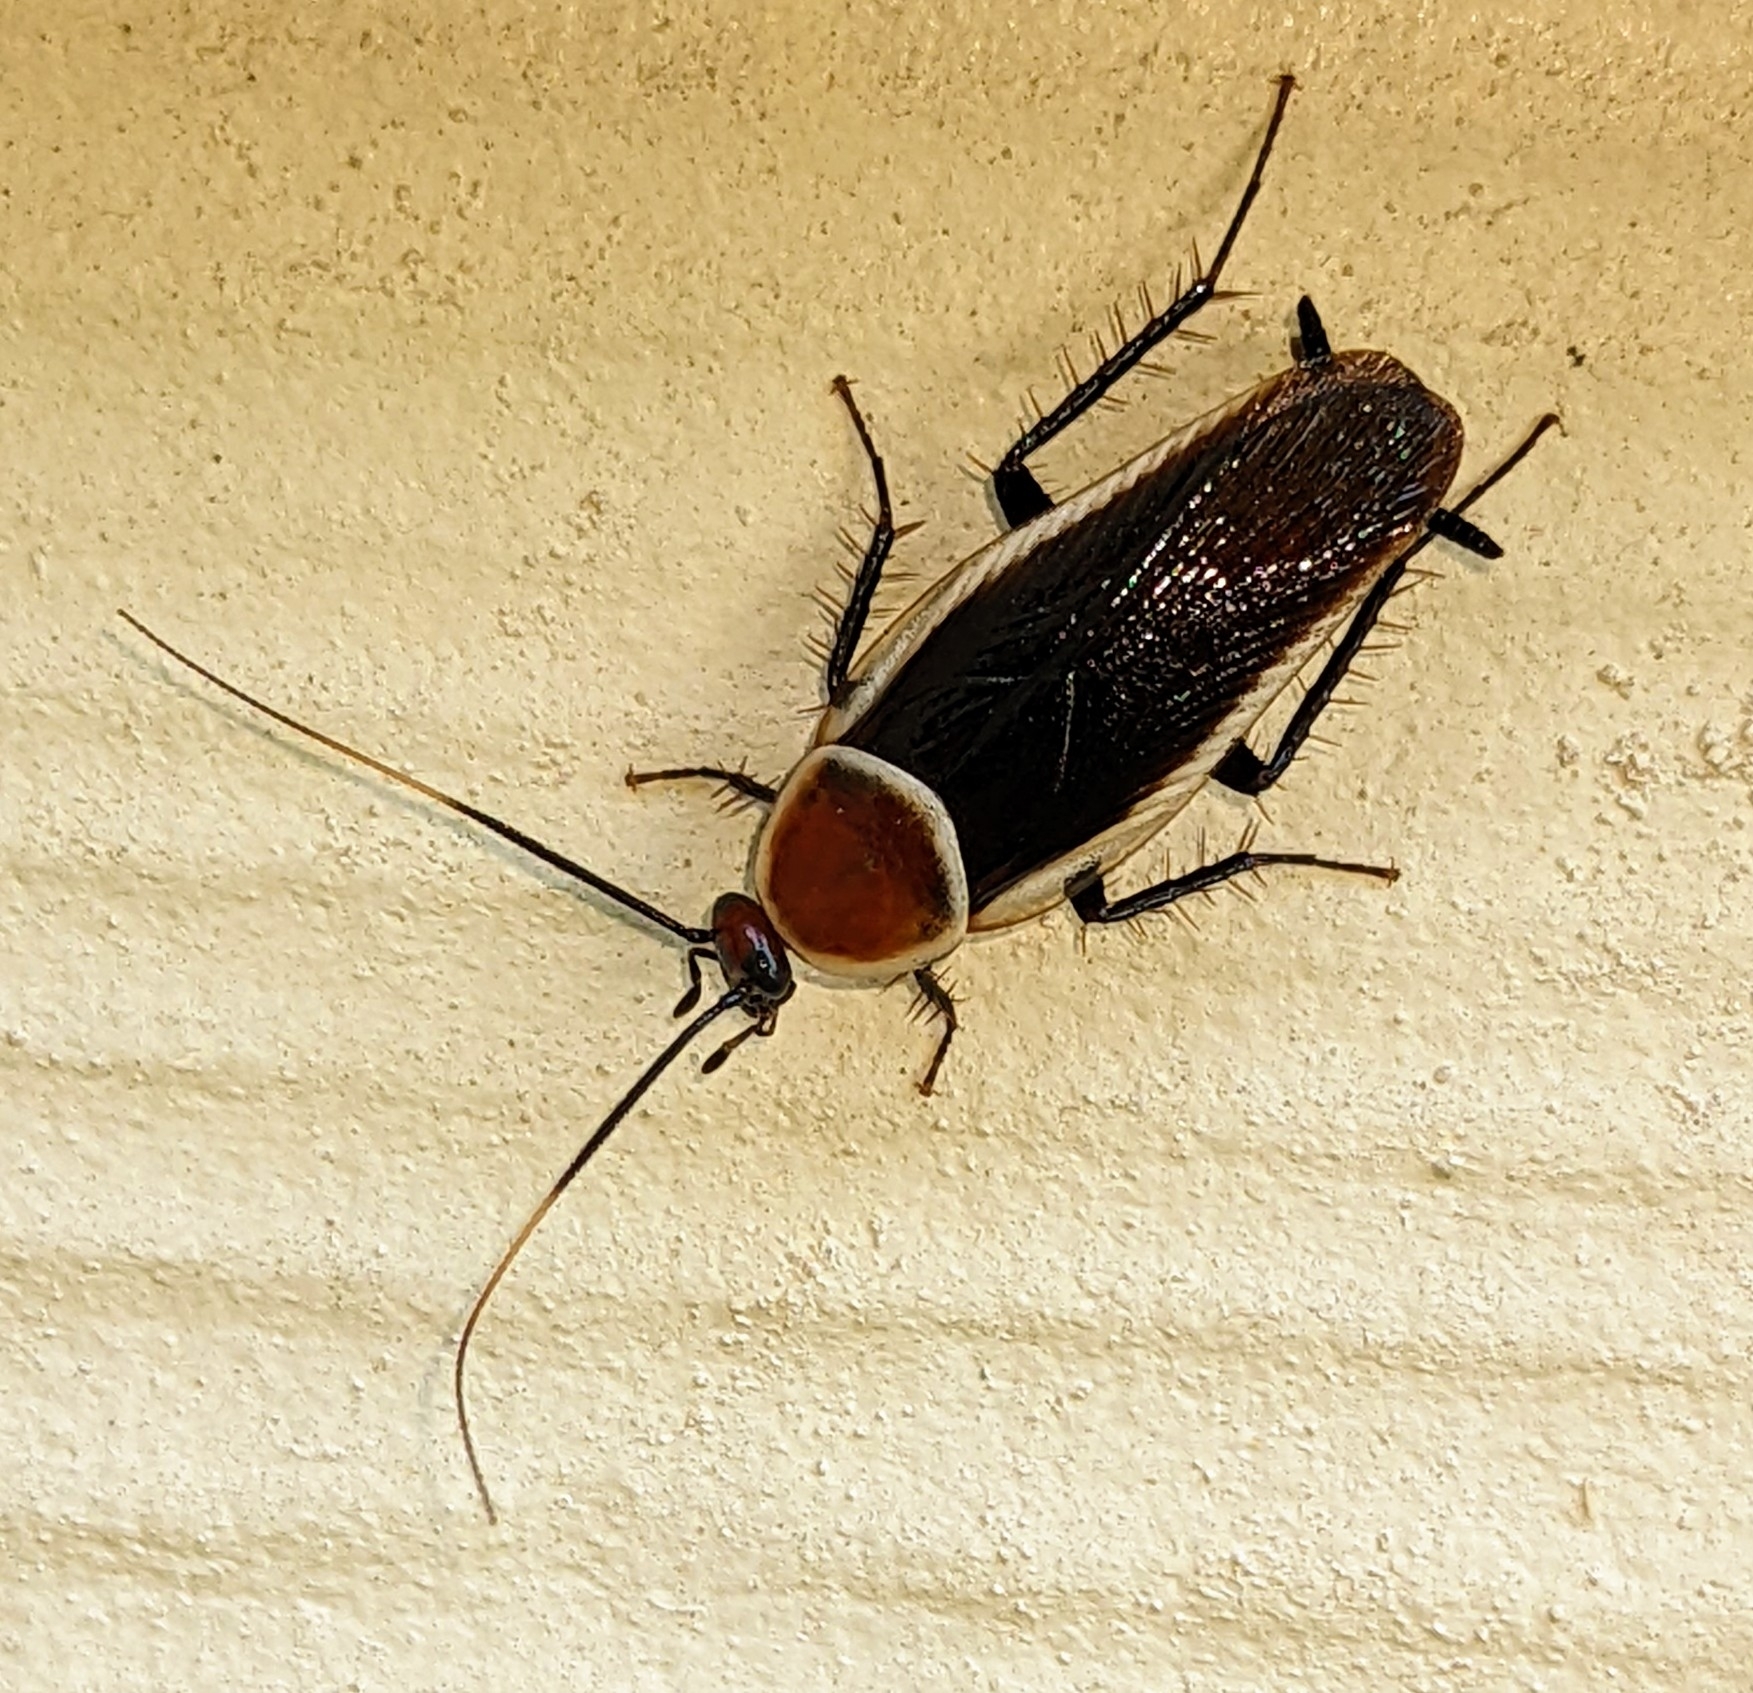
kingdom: Animalia
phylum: Arthropoda
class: Insecta
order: Blattodea
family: Ectobiidae
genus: Pseudomops
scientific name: Pseudomops septentrionalis
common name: Pale-bordered field cockroach
